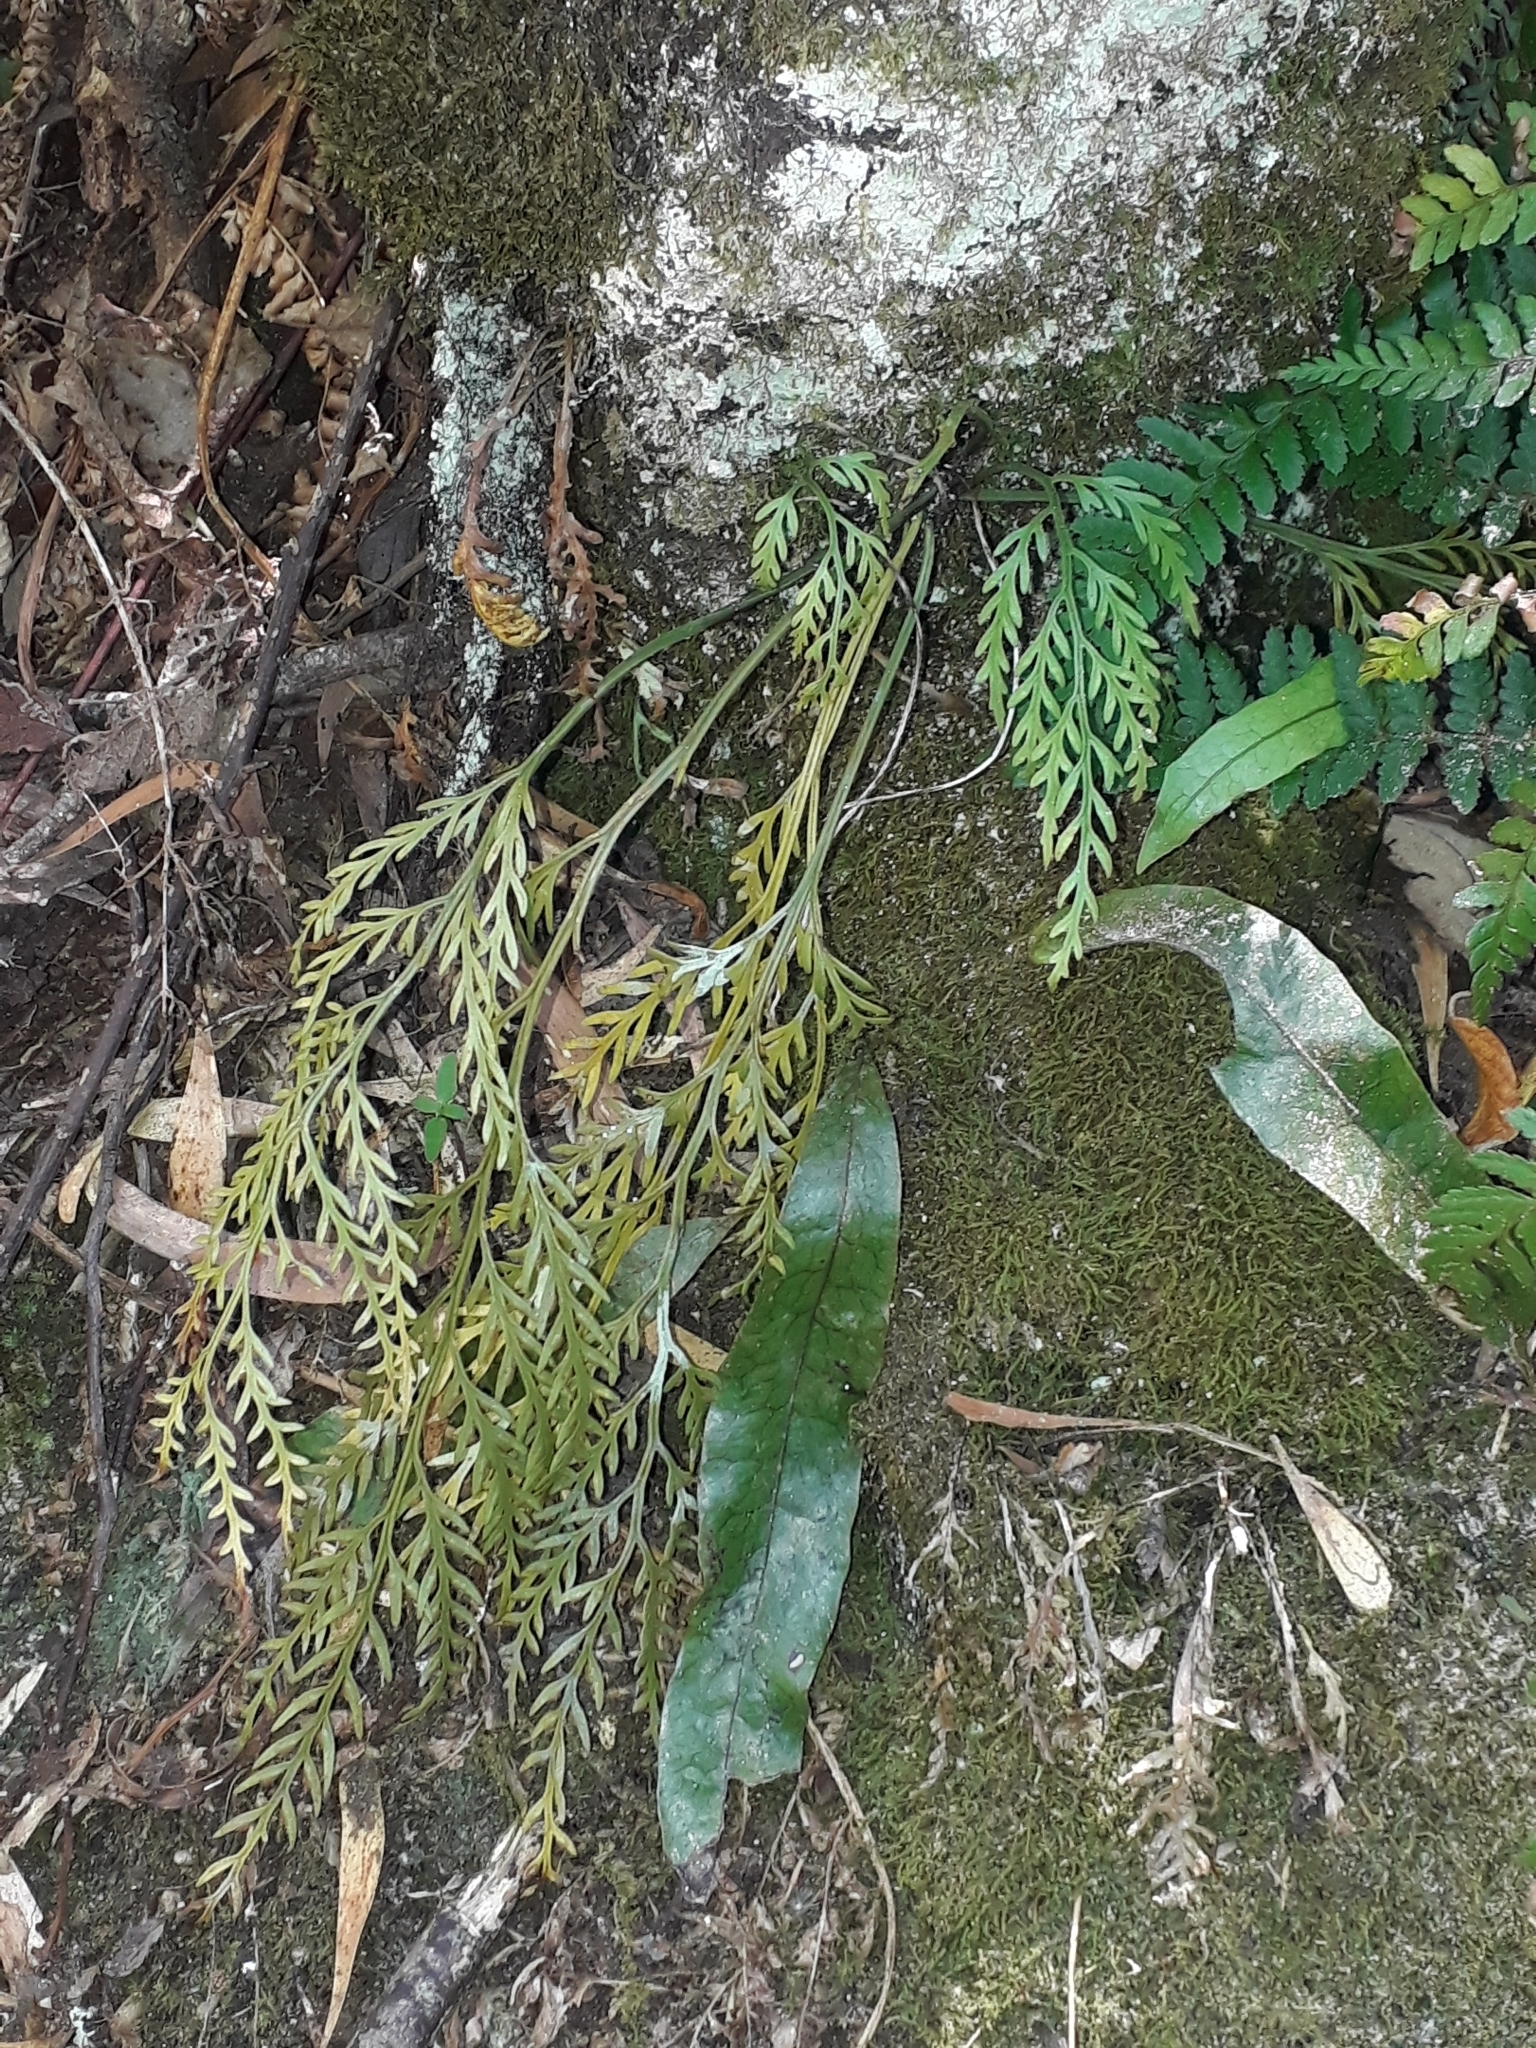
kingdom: Plantae
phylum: Tracheophyta
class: Polypodiopsida
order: Polypodiales
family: Aspleniaceae
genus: Asplenium
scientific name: Asplenium flaccidum
